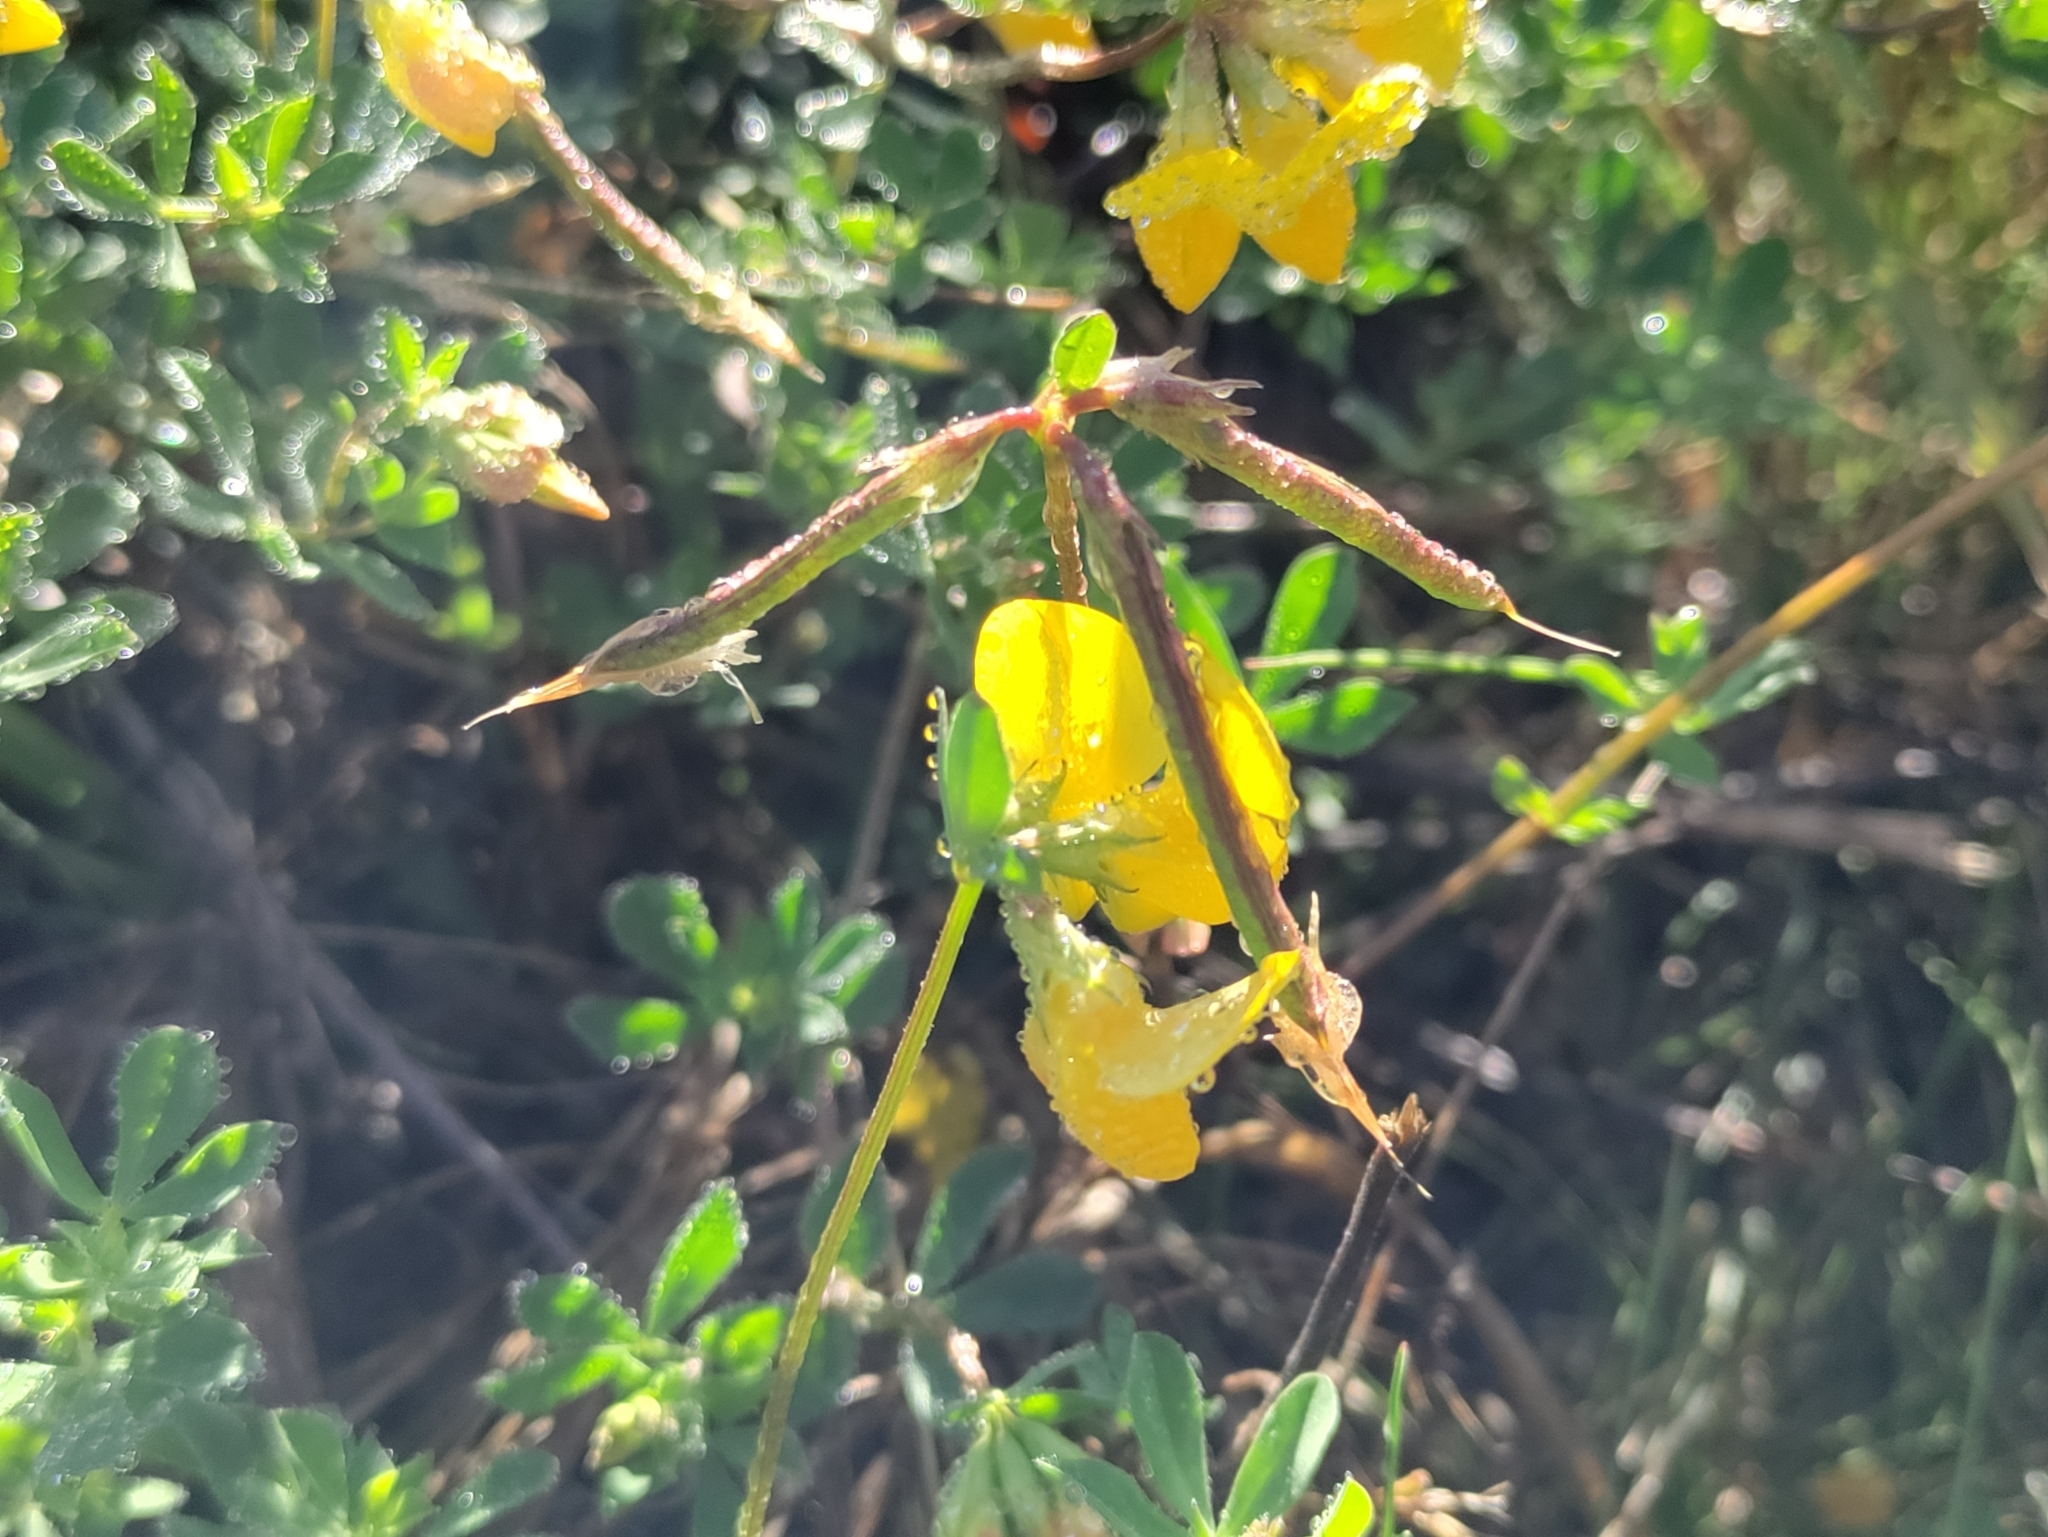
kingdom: Plantae
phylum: Tracheophyta
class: Magnoliopsida
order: Fabales
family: Fabaceae
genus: Lotus
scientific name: Lotus corniculatus
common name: Common bird's-foot-trefoil
